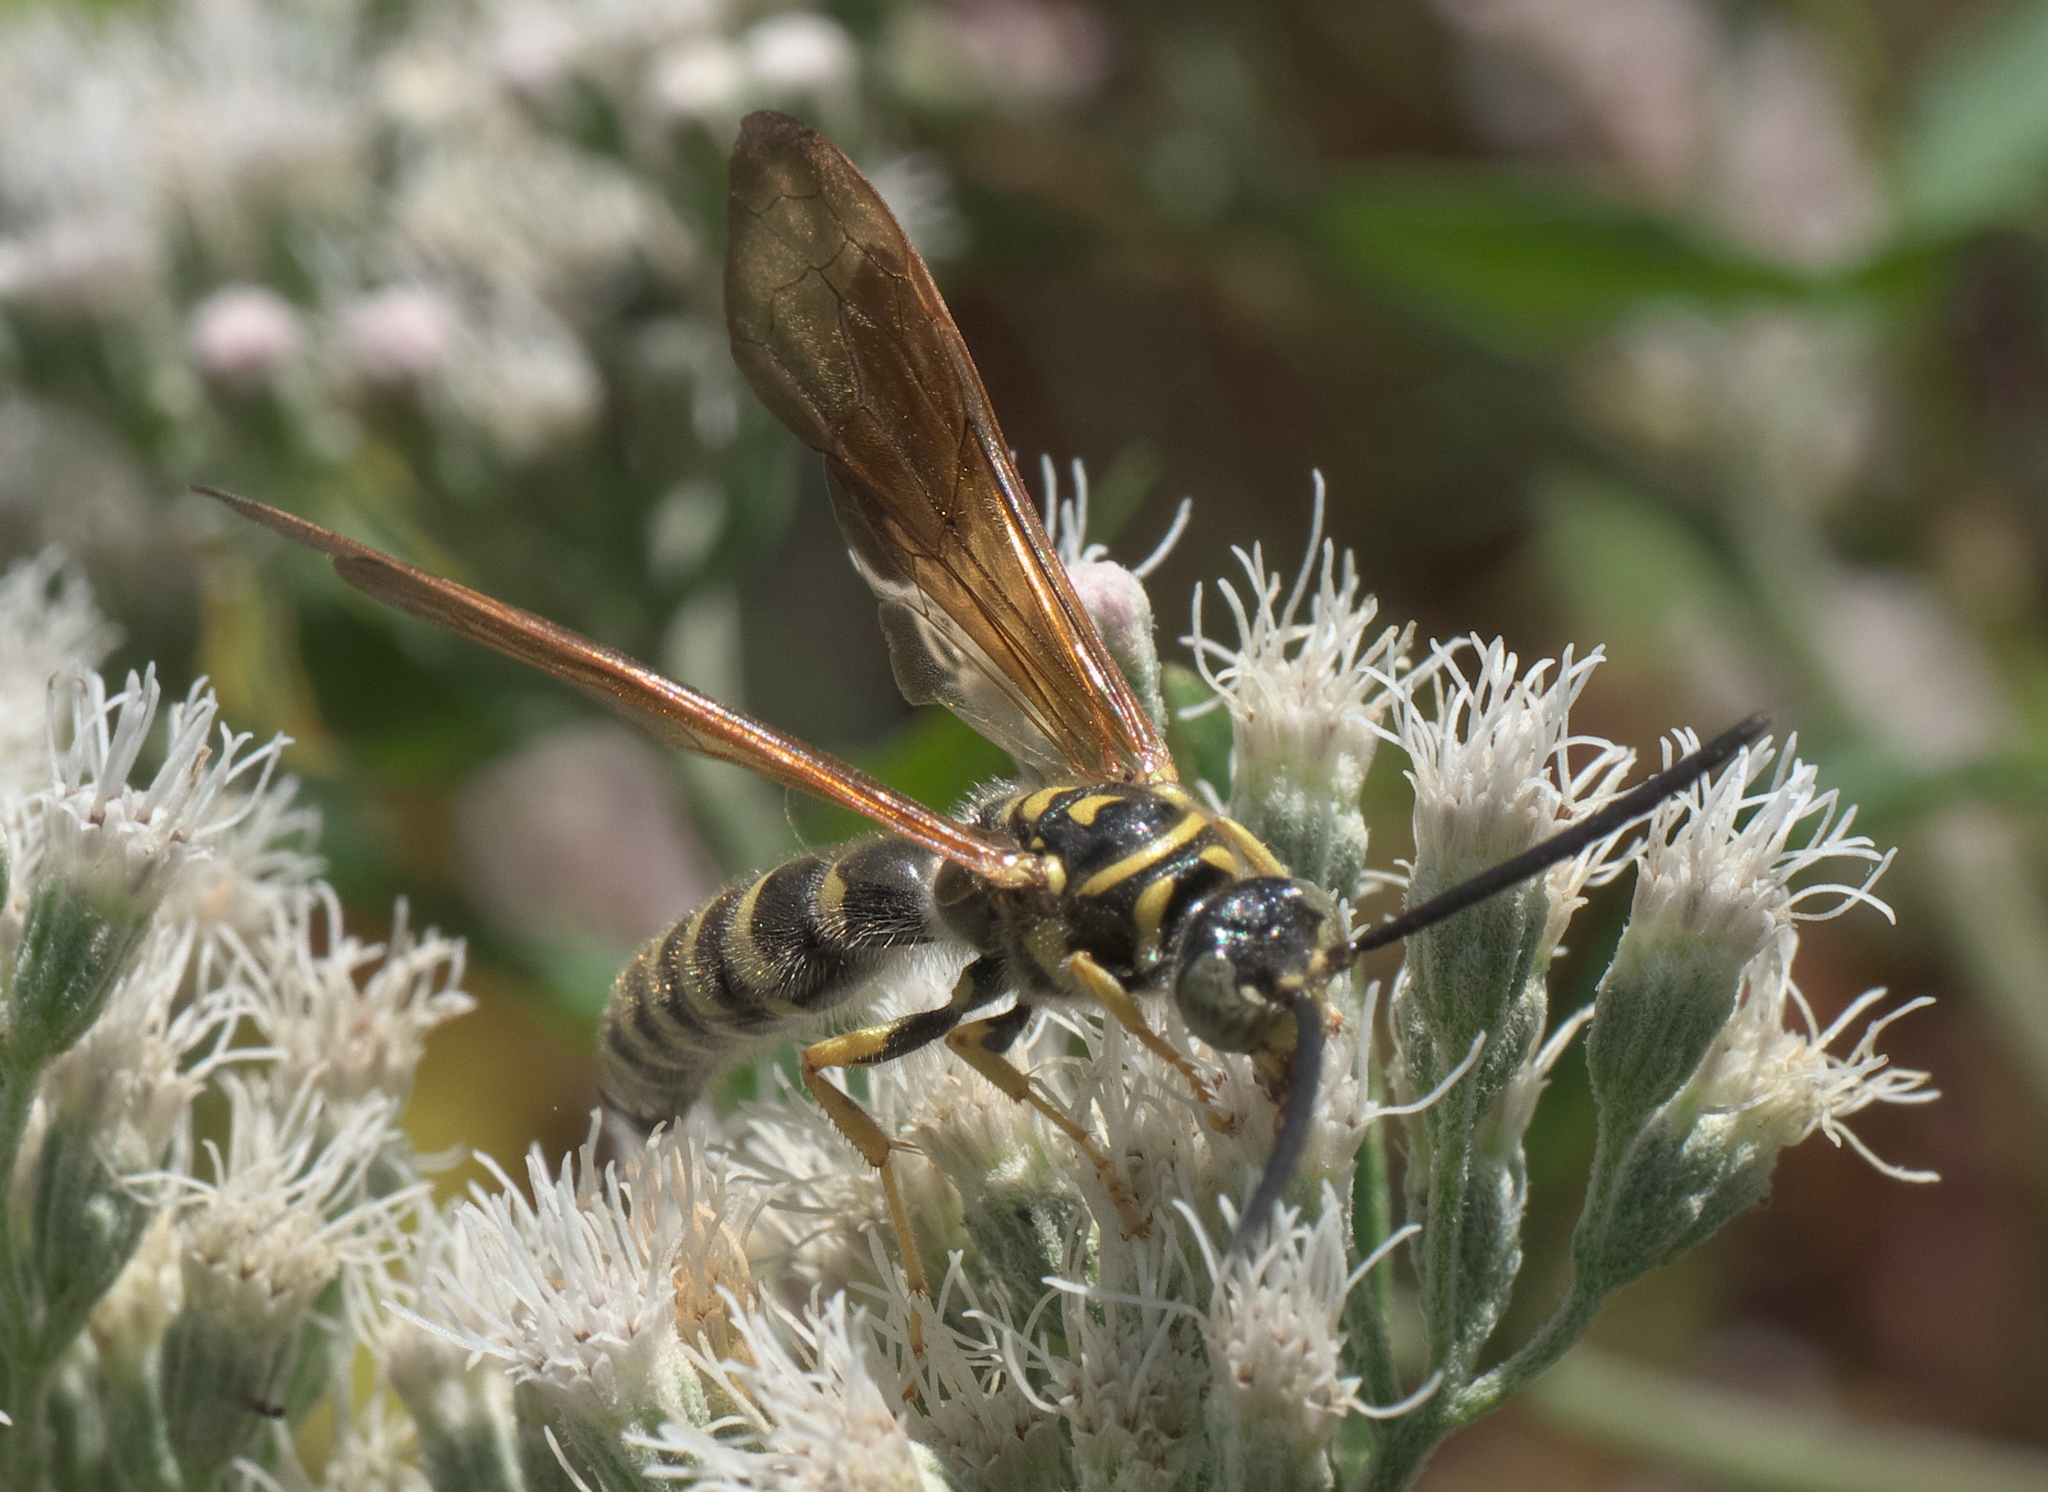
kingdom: Animalia
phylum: Arthropoda
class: Insecta
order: Hymenoptera
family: Tiphiidae
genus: Myzinum
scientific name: Myzinum quinquecinctum
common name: Five-banded thynnid wasp
